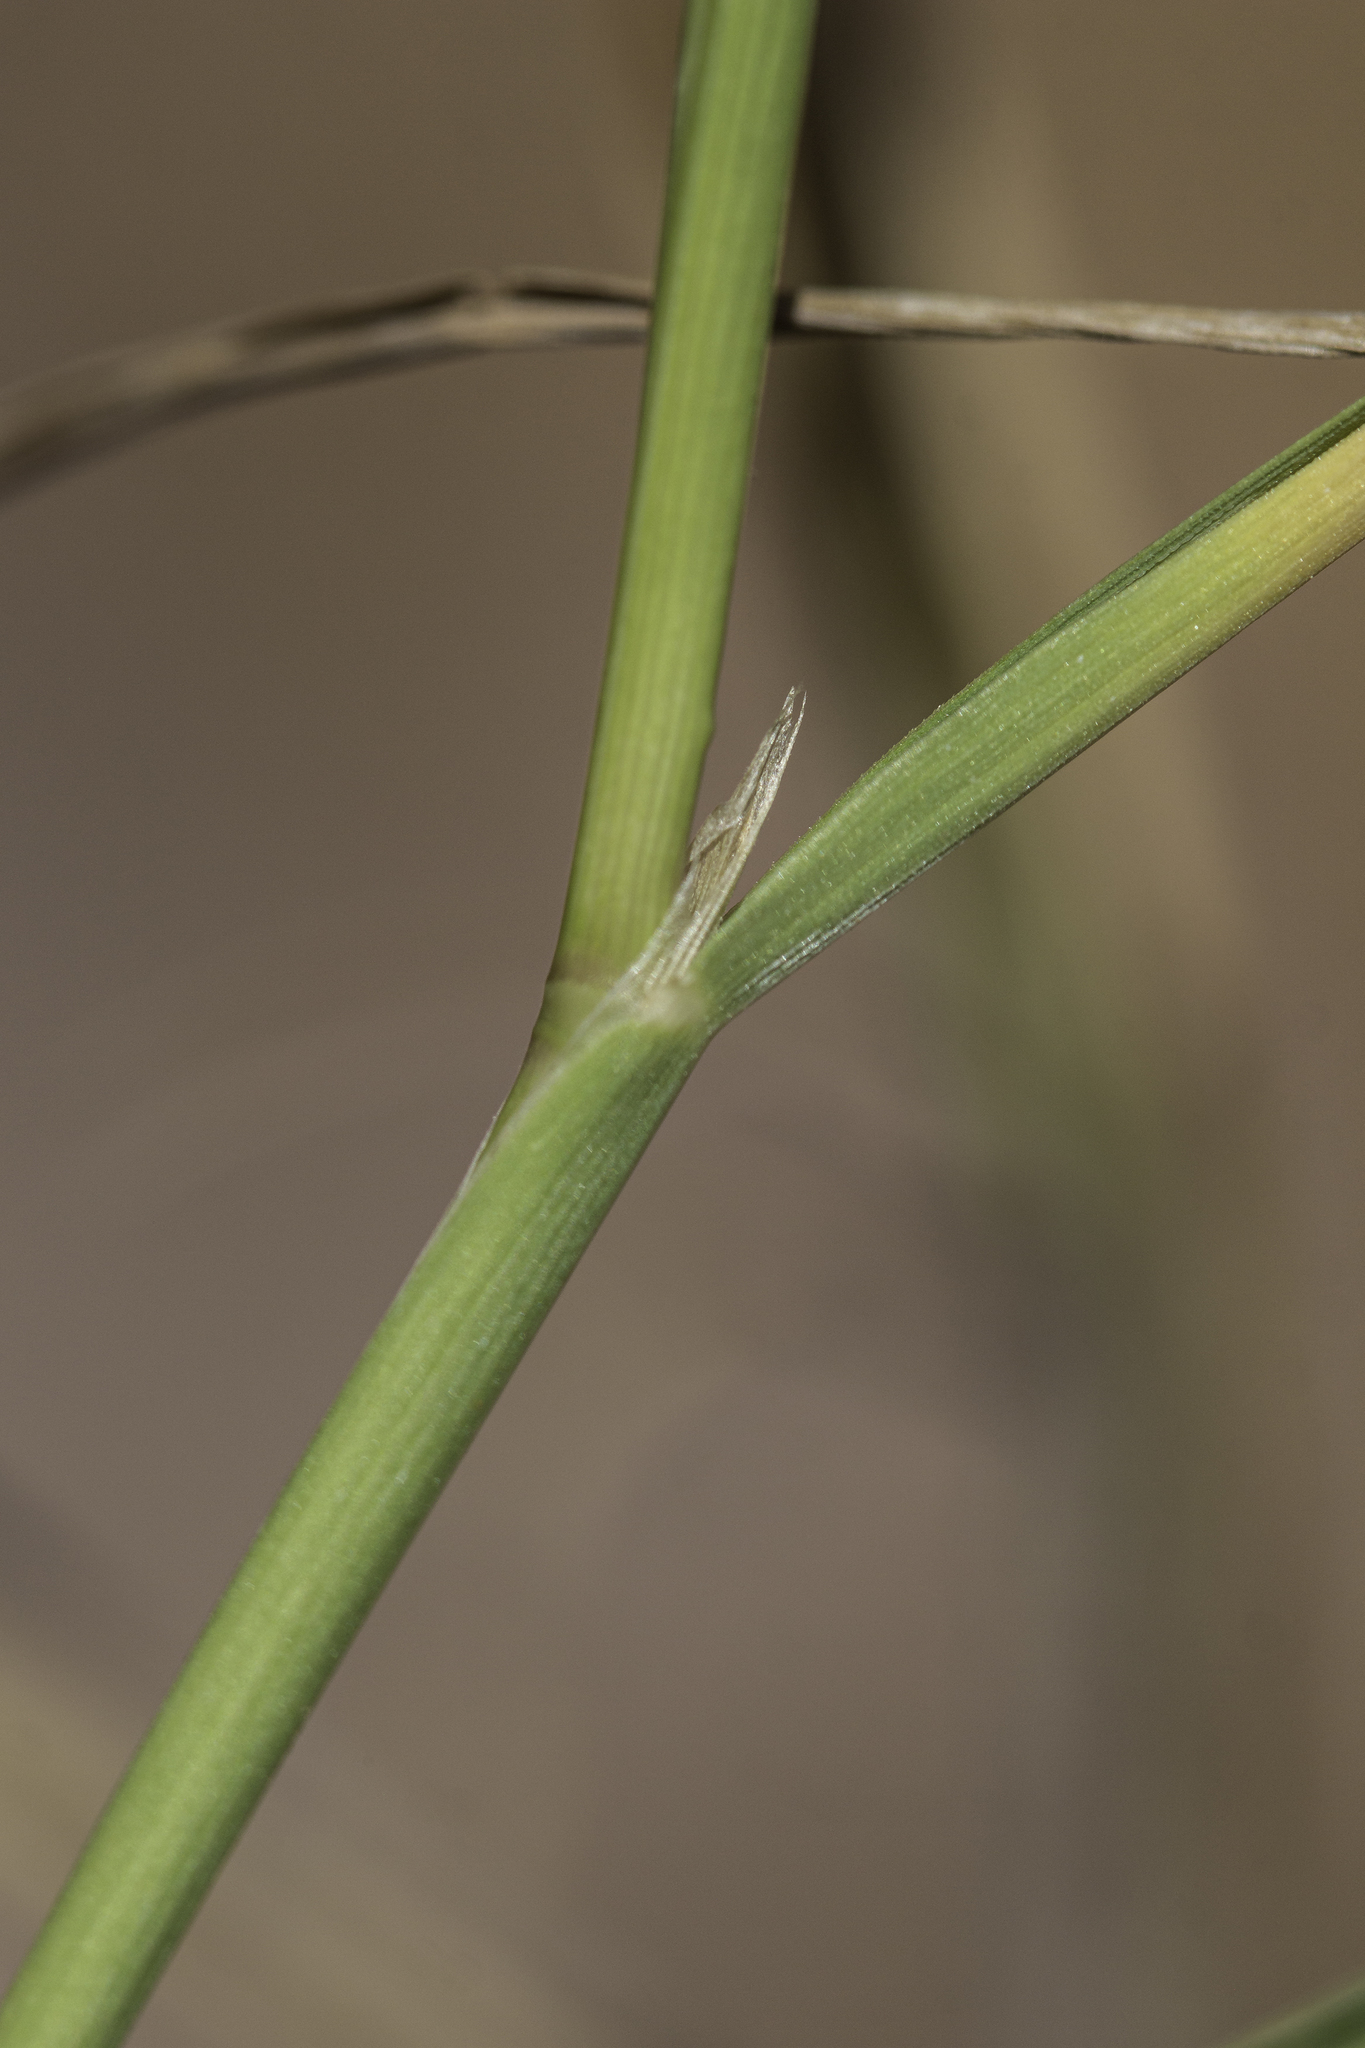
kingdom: Plantae
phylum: Tracheophyta
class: Liliopsida
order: Poales
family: Poaceae
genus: Polypogon
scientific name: Polypogon monspeliensis
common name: Annual rabbitsfoot grass
